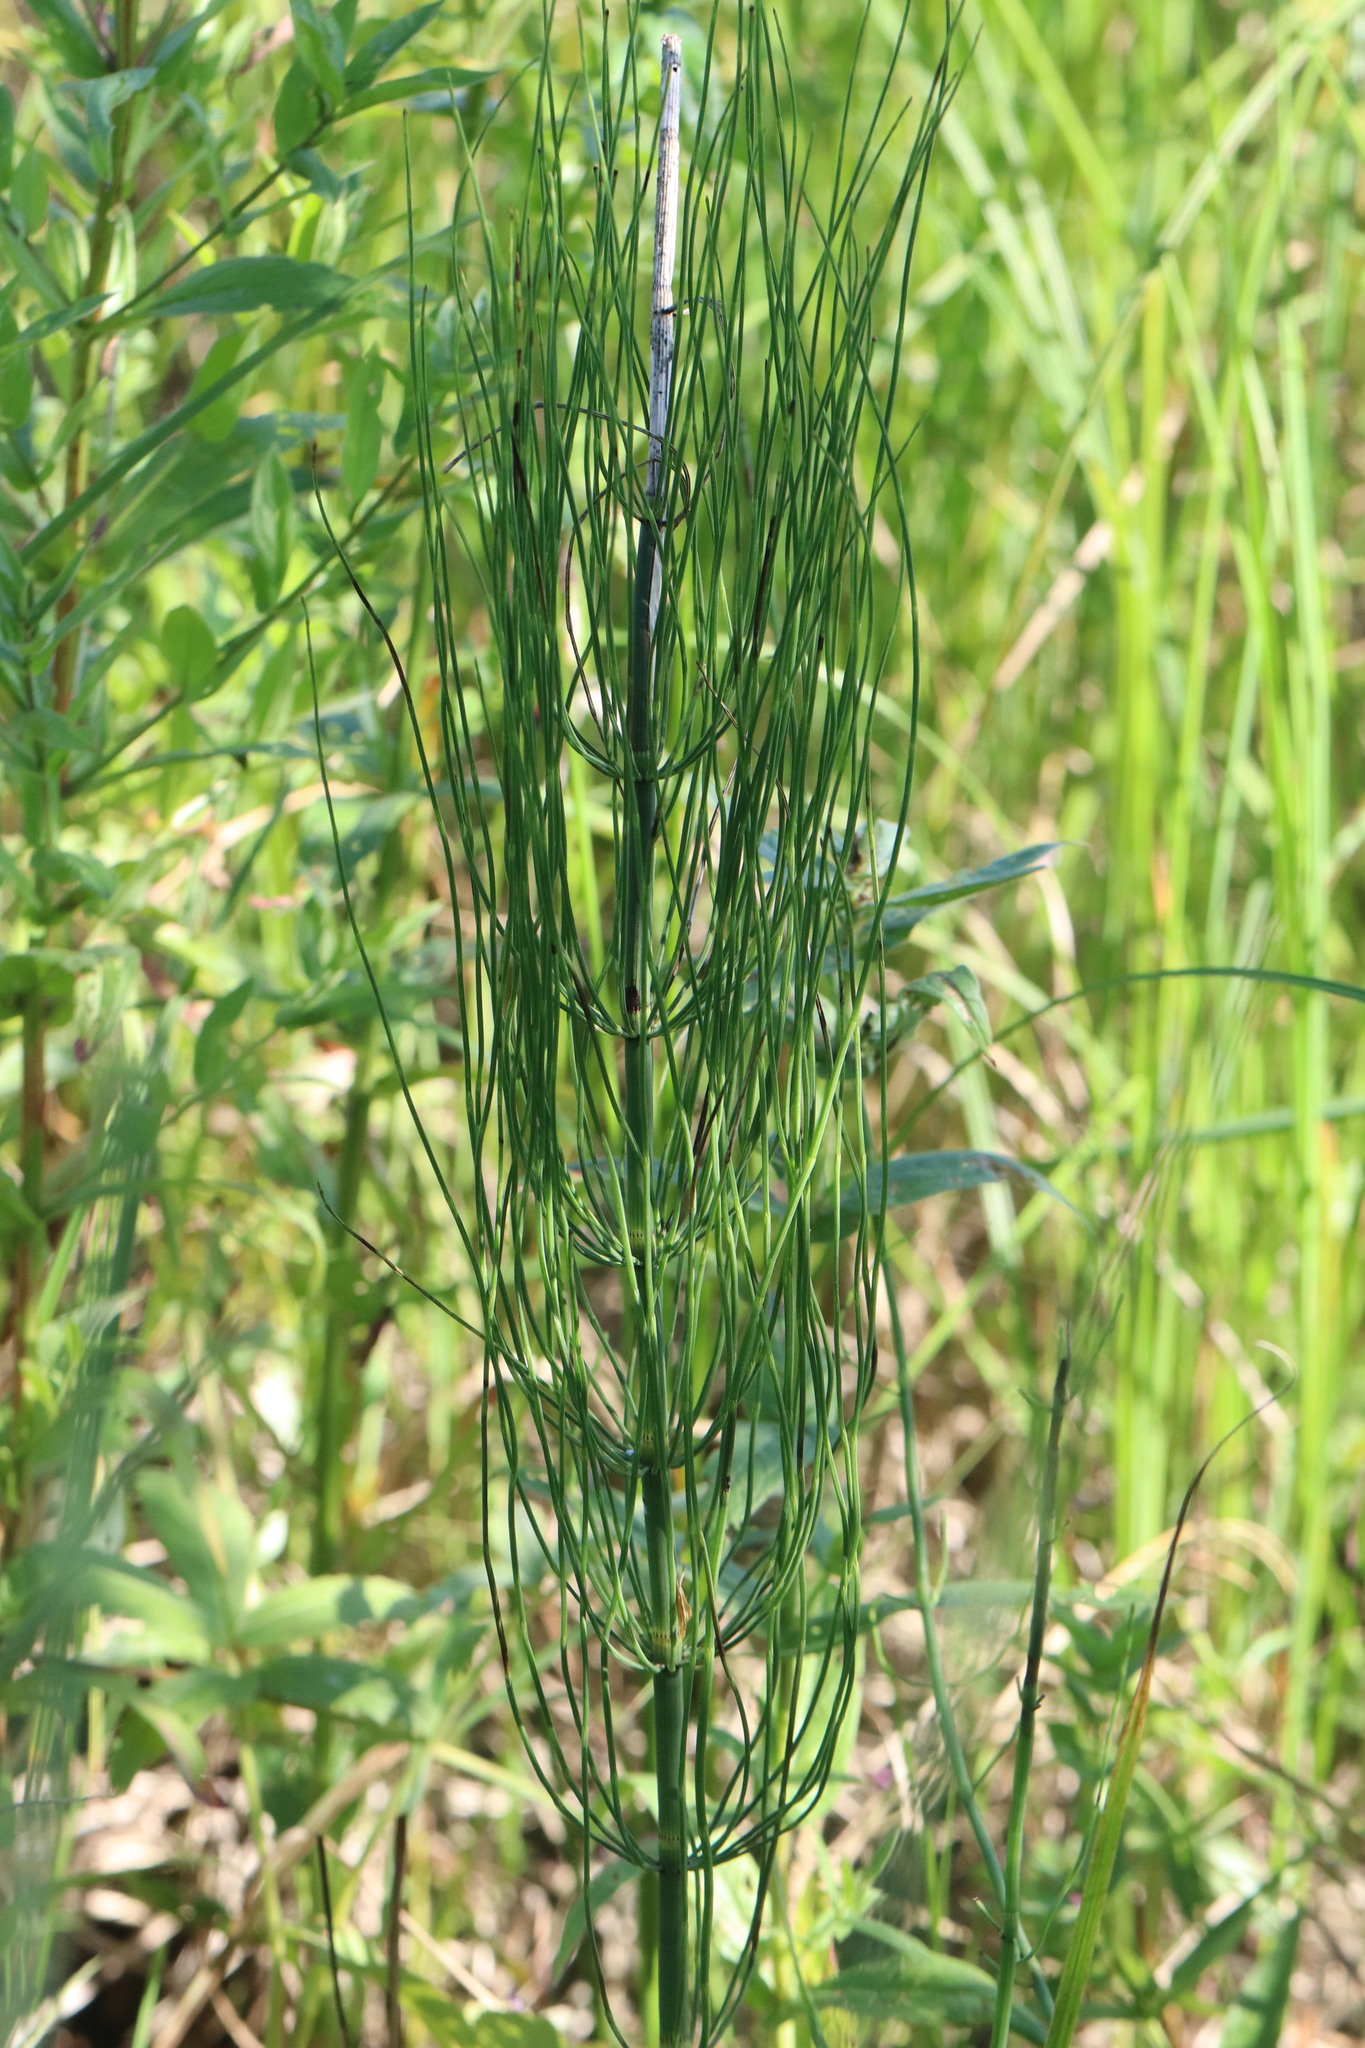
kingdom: Plantae
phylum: Tracheophyta
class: Polypodiopsida
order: Equisetales
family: Equisetaceae
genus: Equisetum
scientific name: Equisetum fluviatile
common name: Water horsetail
